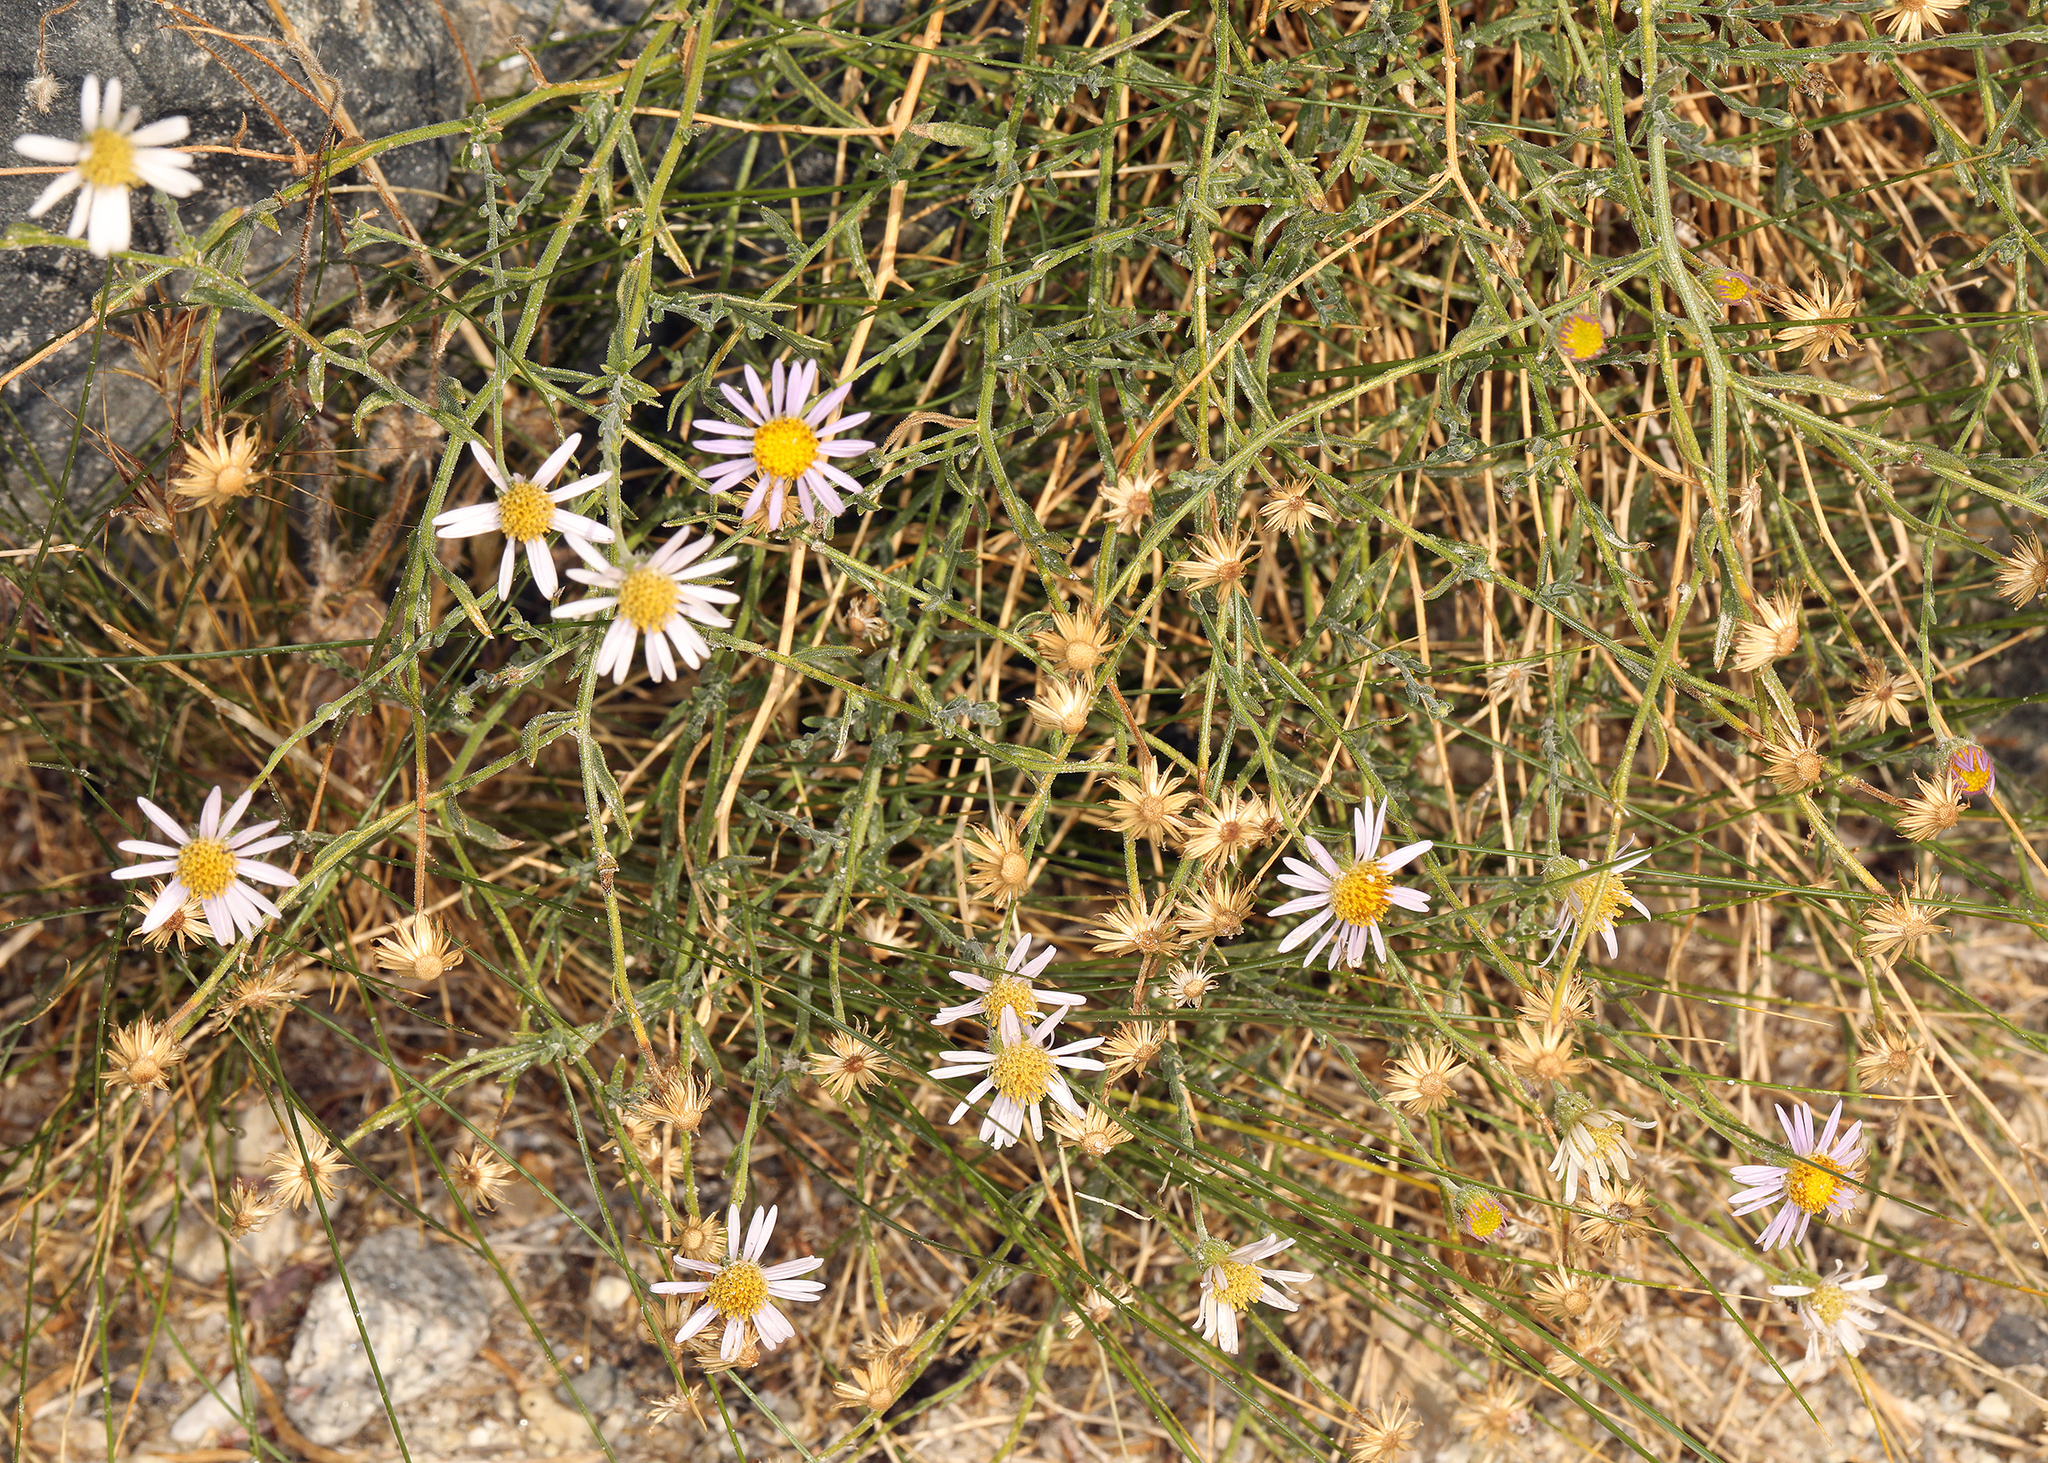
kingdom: Plantae
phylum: Tracheophyta
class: Magnoliopsida
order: Asterales
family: Asteraceae
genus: Erigeron
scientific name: Erigeron breweri
